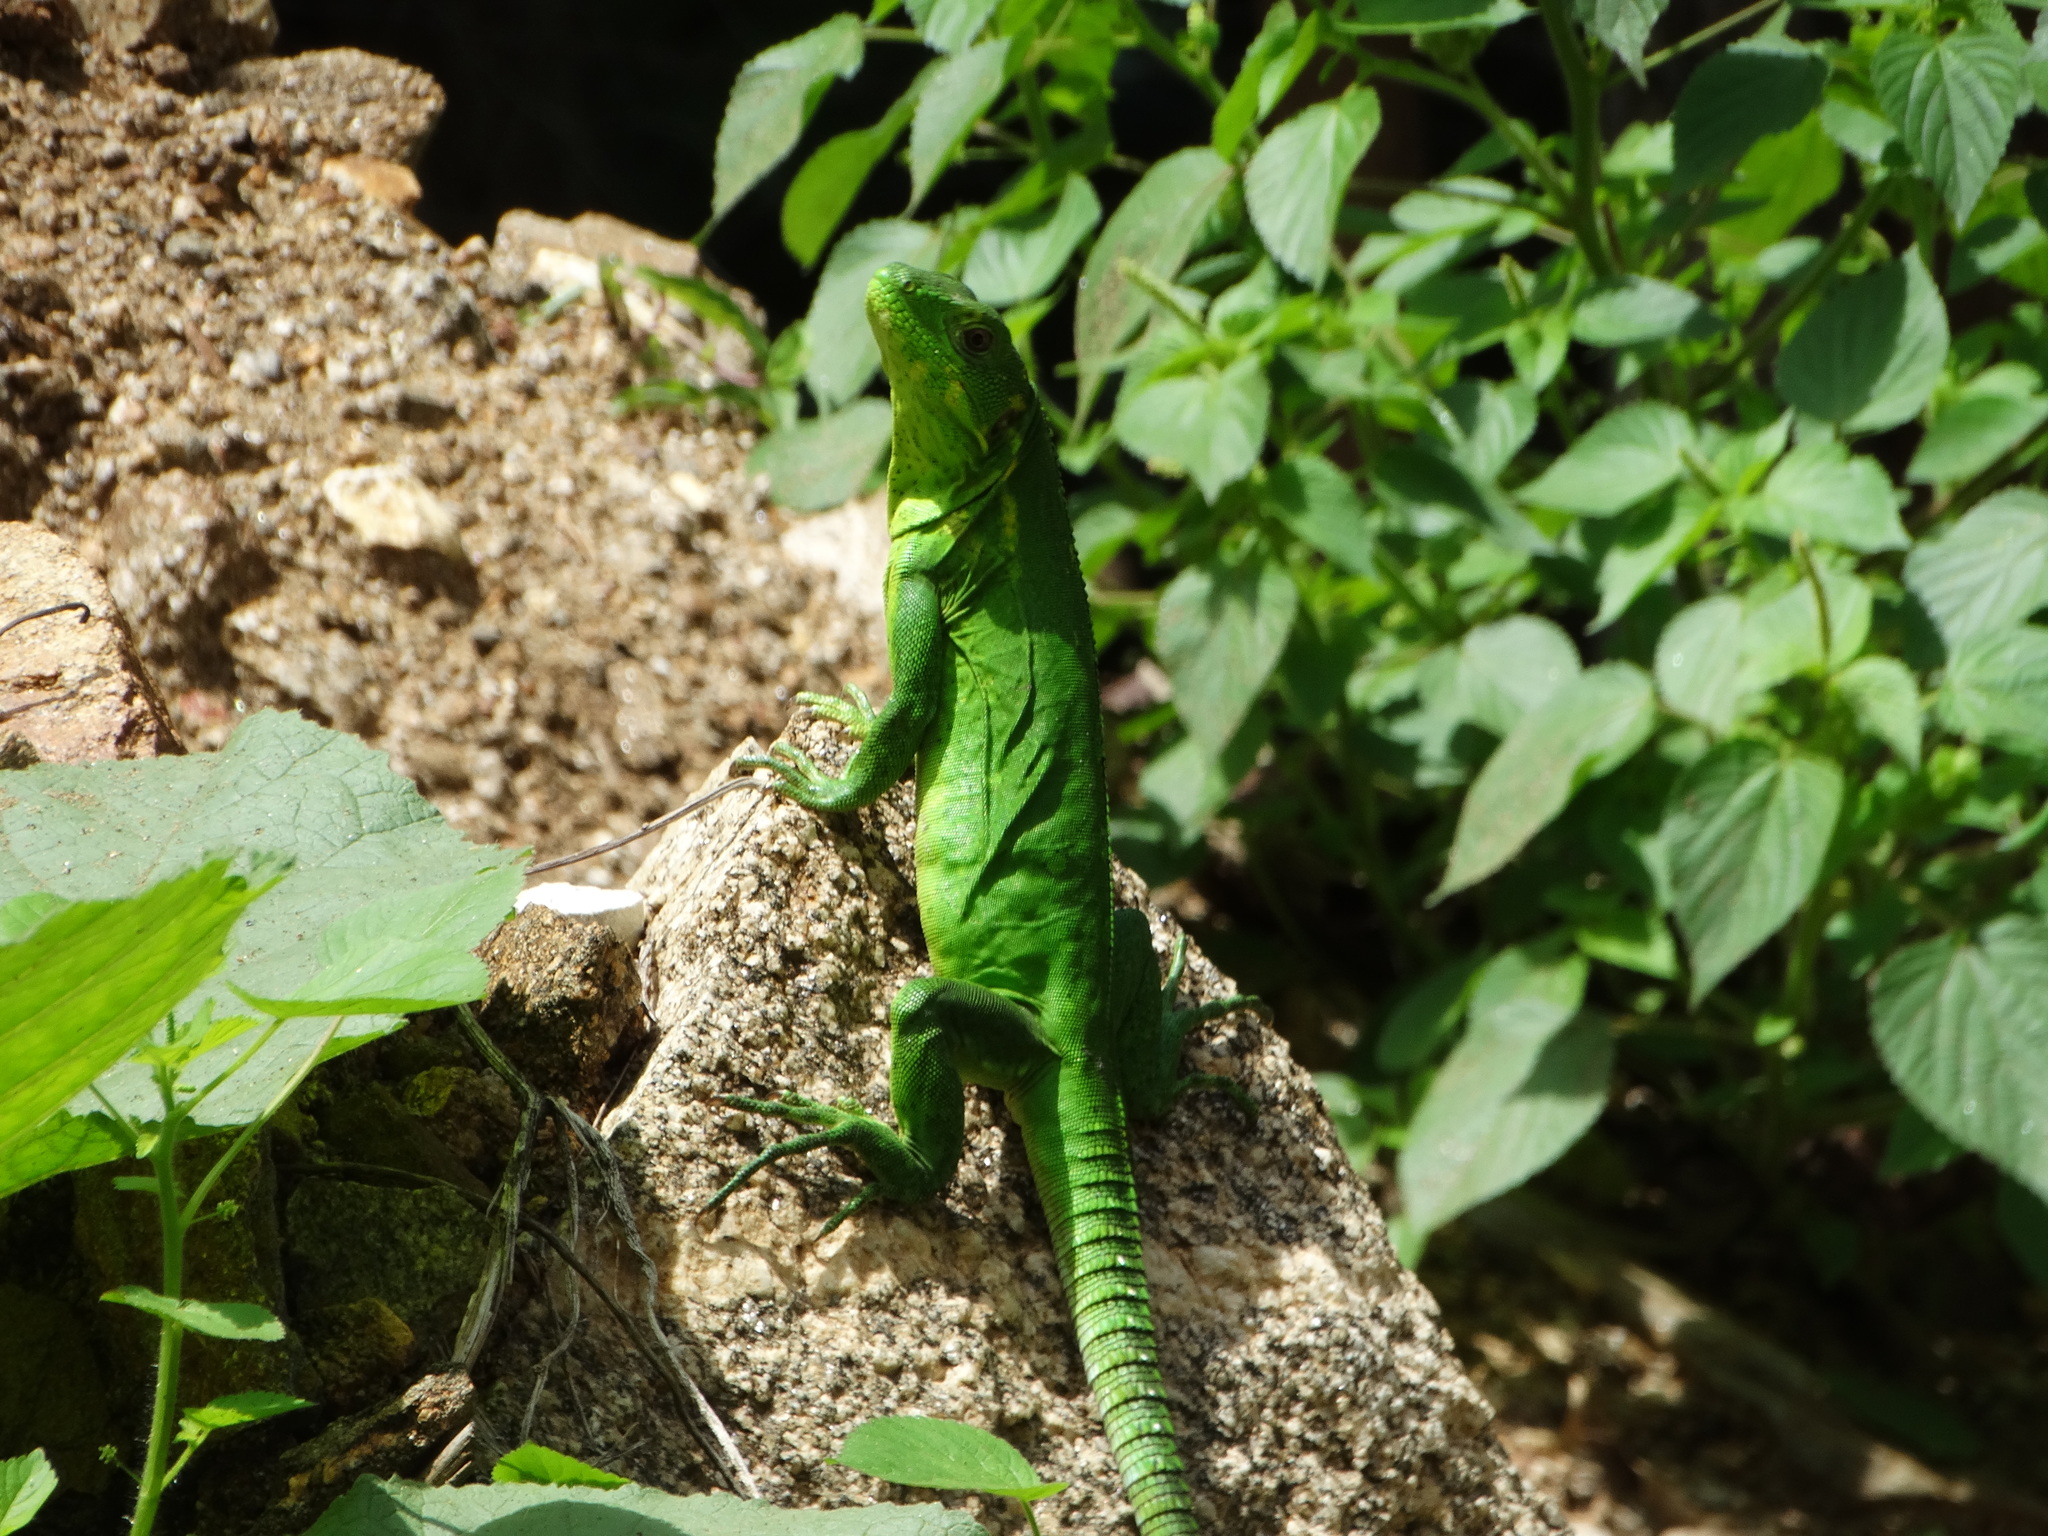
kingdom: Animalia
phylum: Chordata
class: Squamata
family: Iguanidae
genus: Ctenosaura
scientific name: Ctenosaura pectinata
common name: Guerreran spiny-tailed iguana
